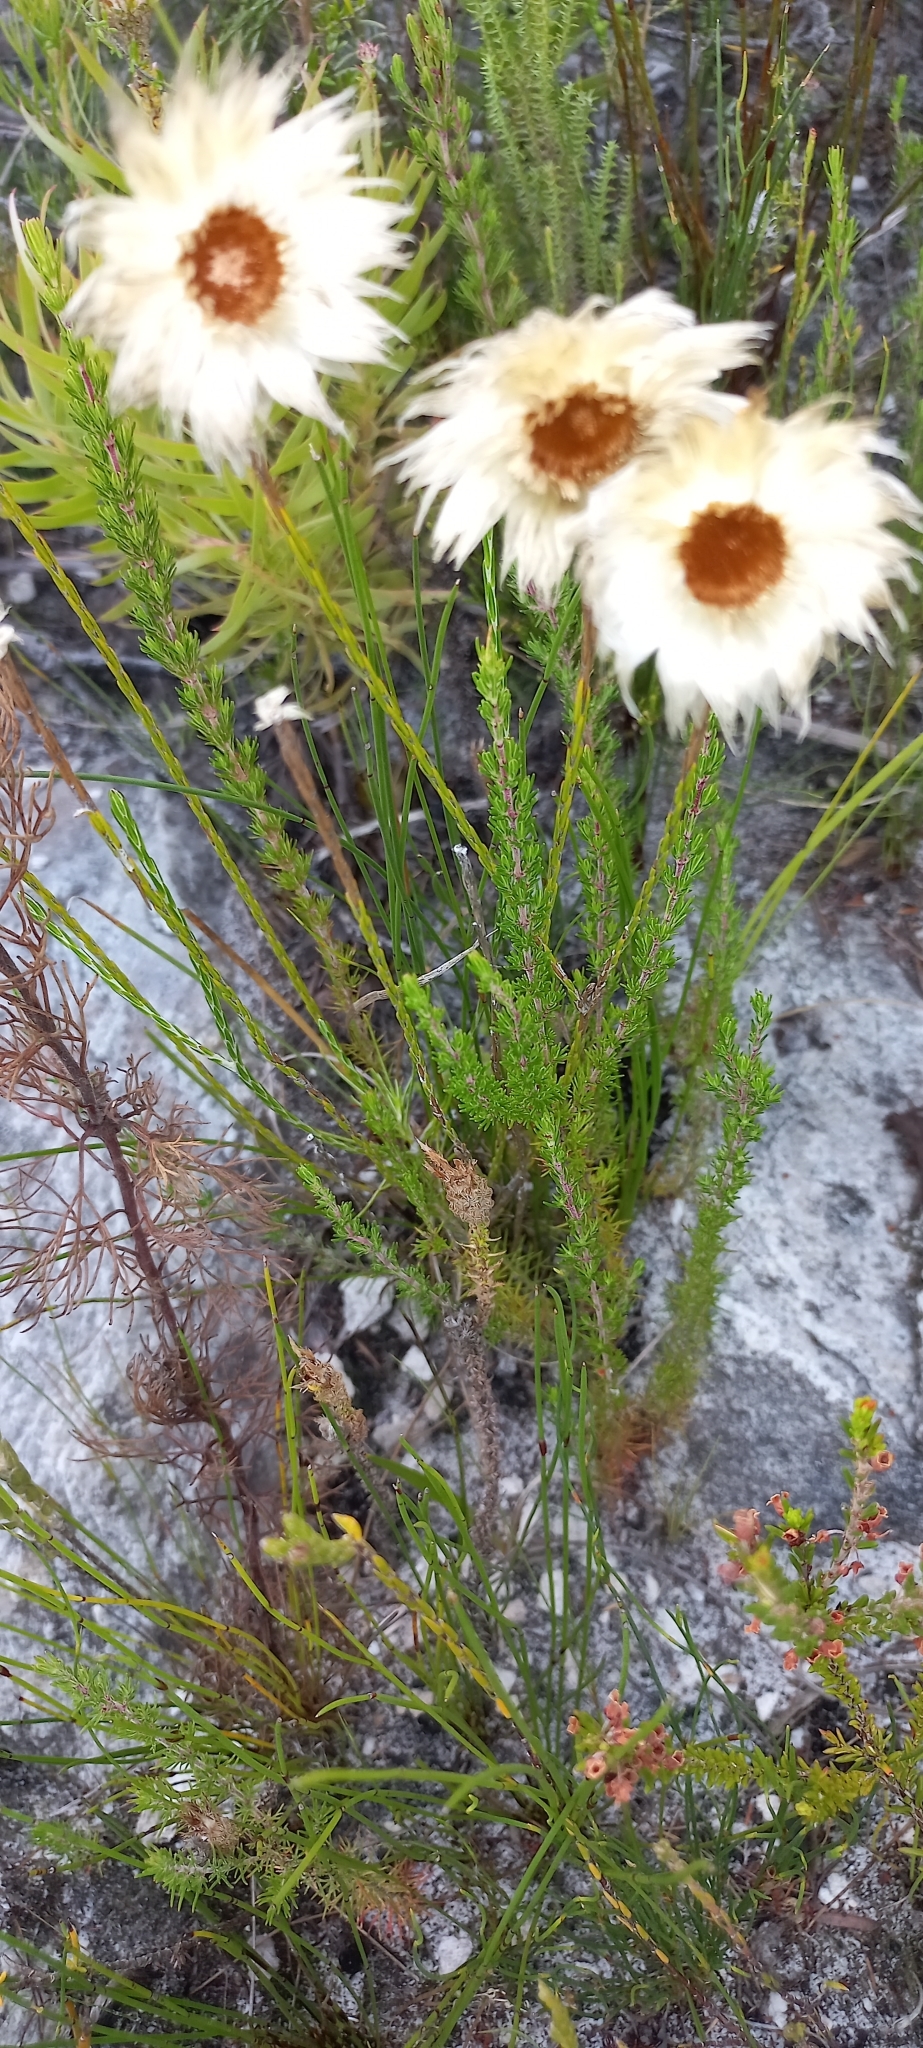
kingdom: Plantae
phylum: Tracheophyta
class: Magnoliopsida
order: Asterales
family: Asteraceae
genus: Edmondia
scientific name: Edmondia sesamoides
